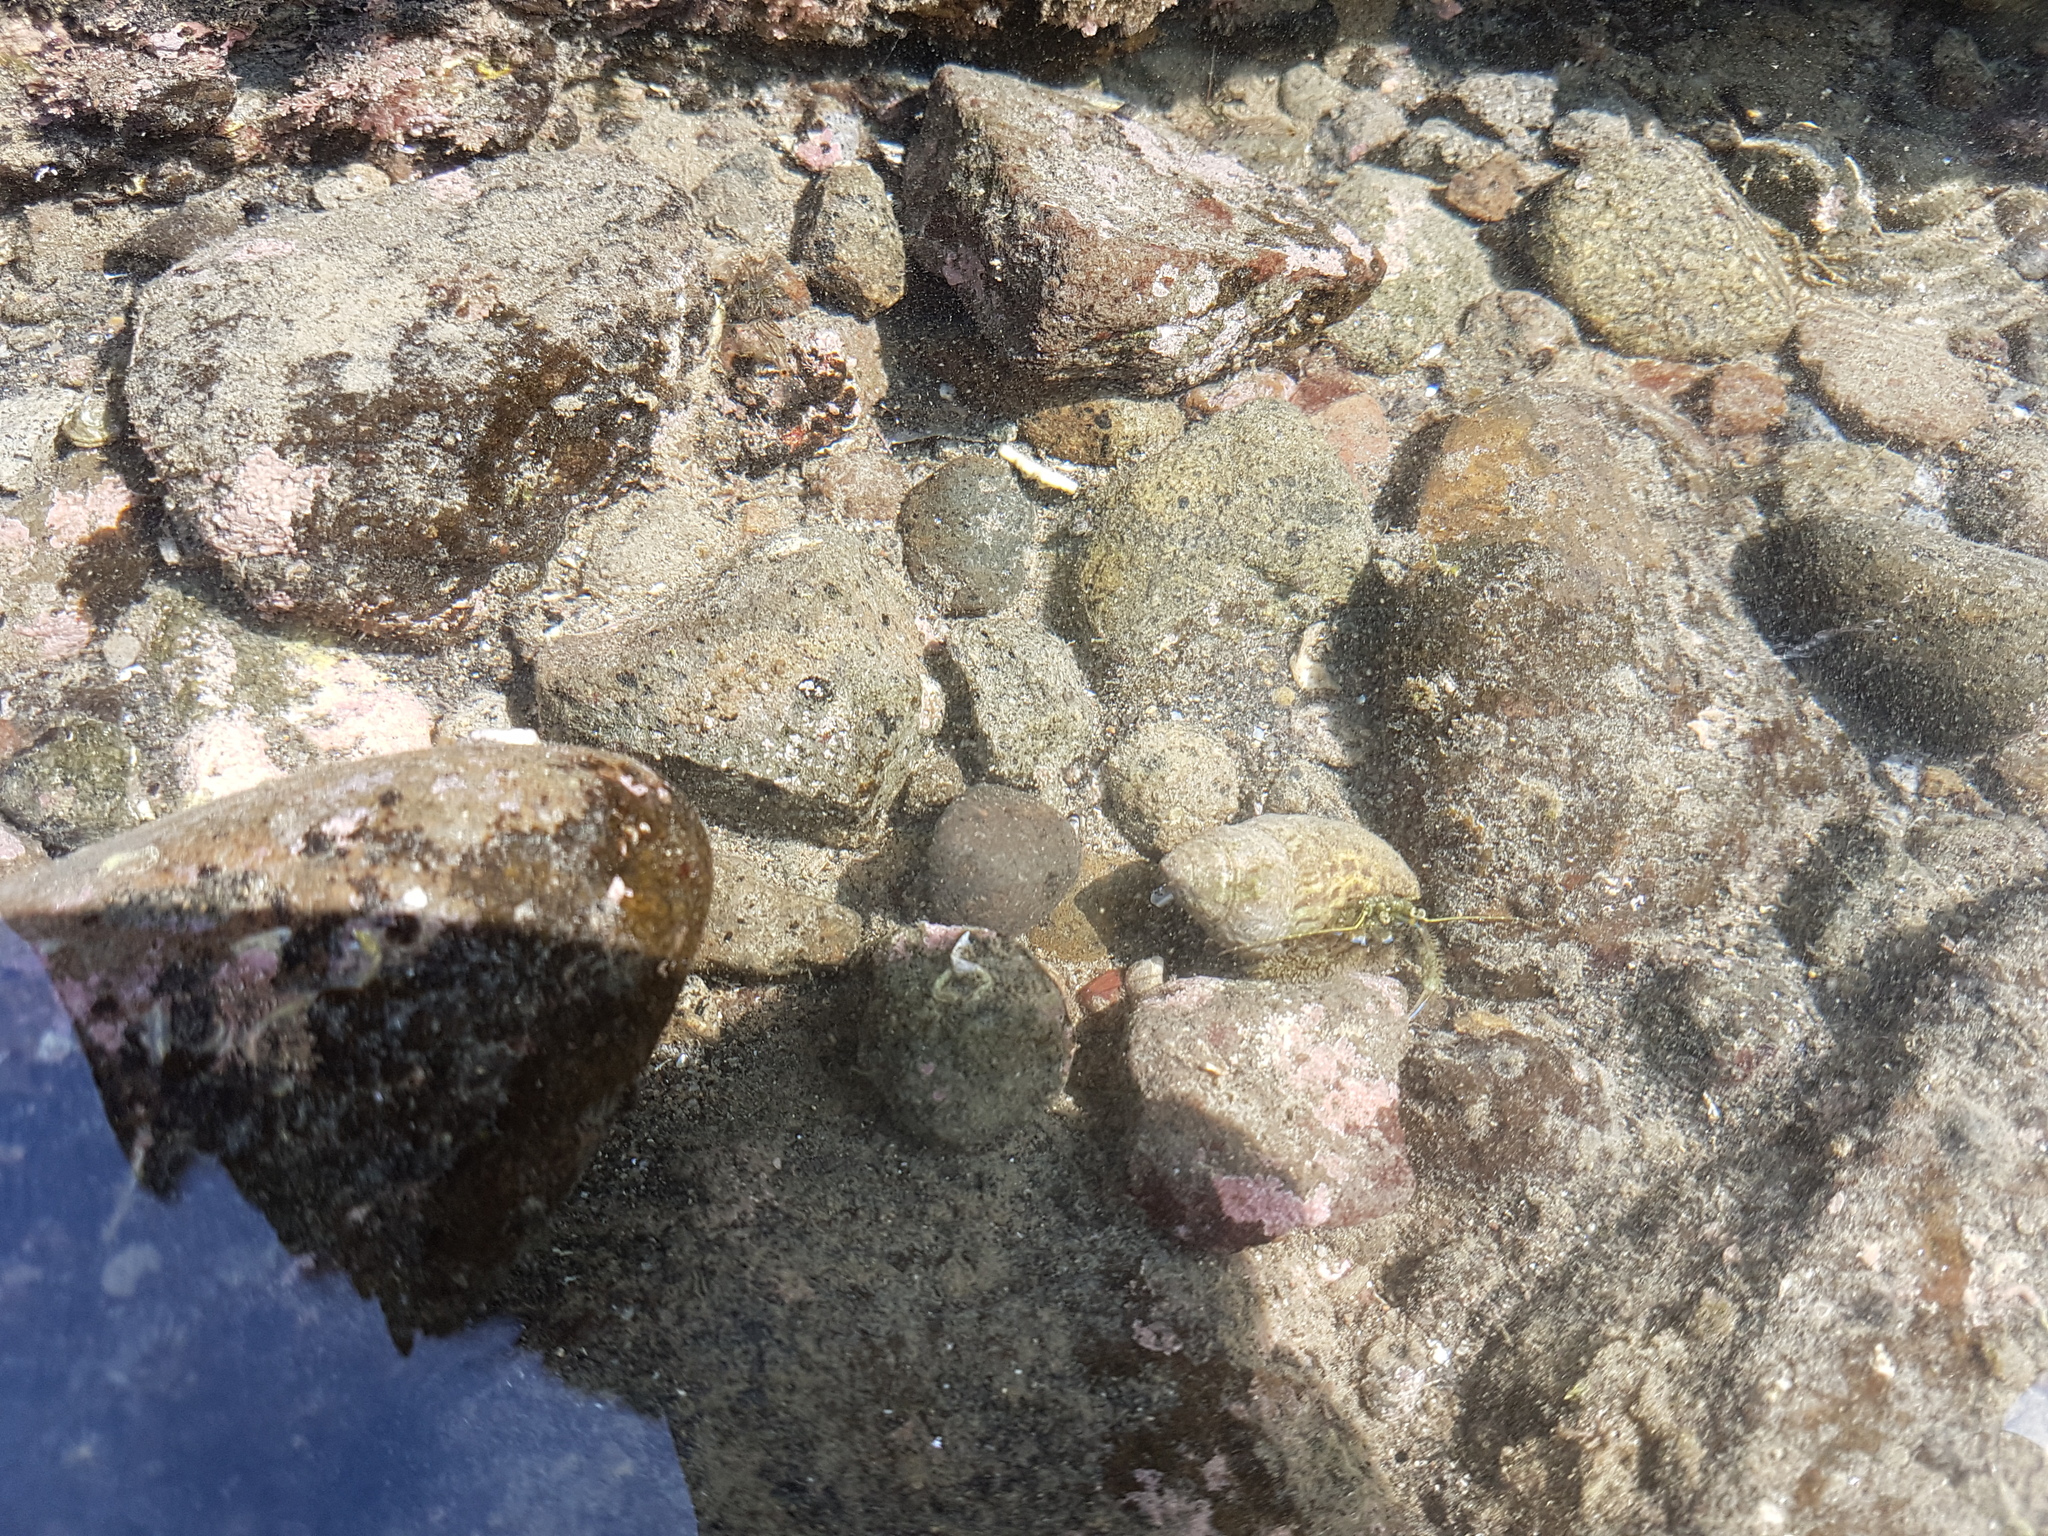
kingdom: Animalia
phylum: Arthropoda
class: Malacostraca
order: Decapoda
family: Paguridae
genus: Pagurus
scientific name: Pagurus novizealandiae
